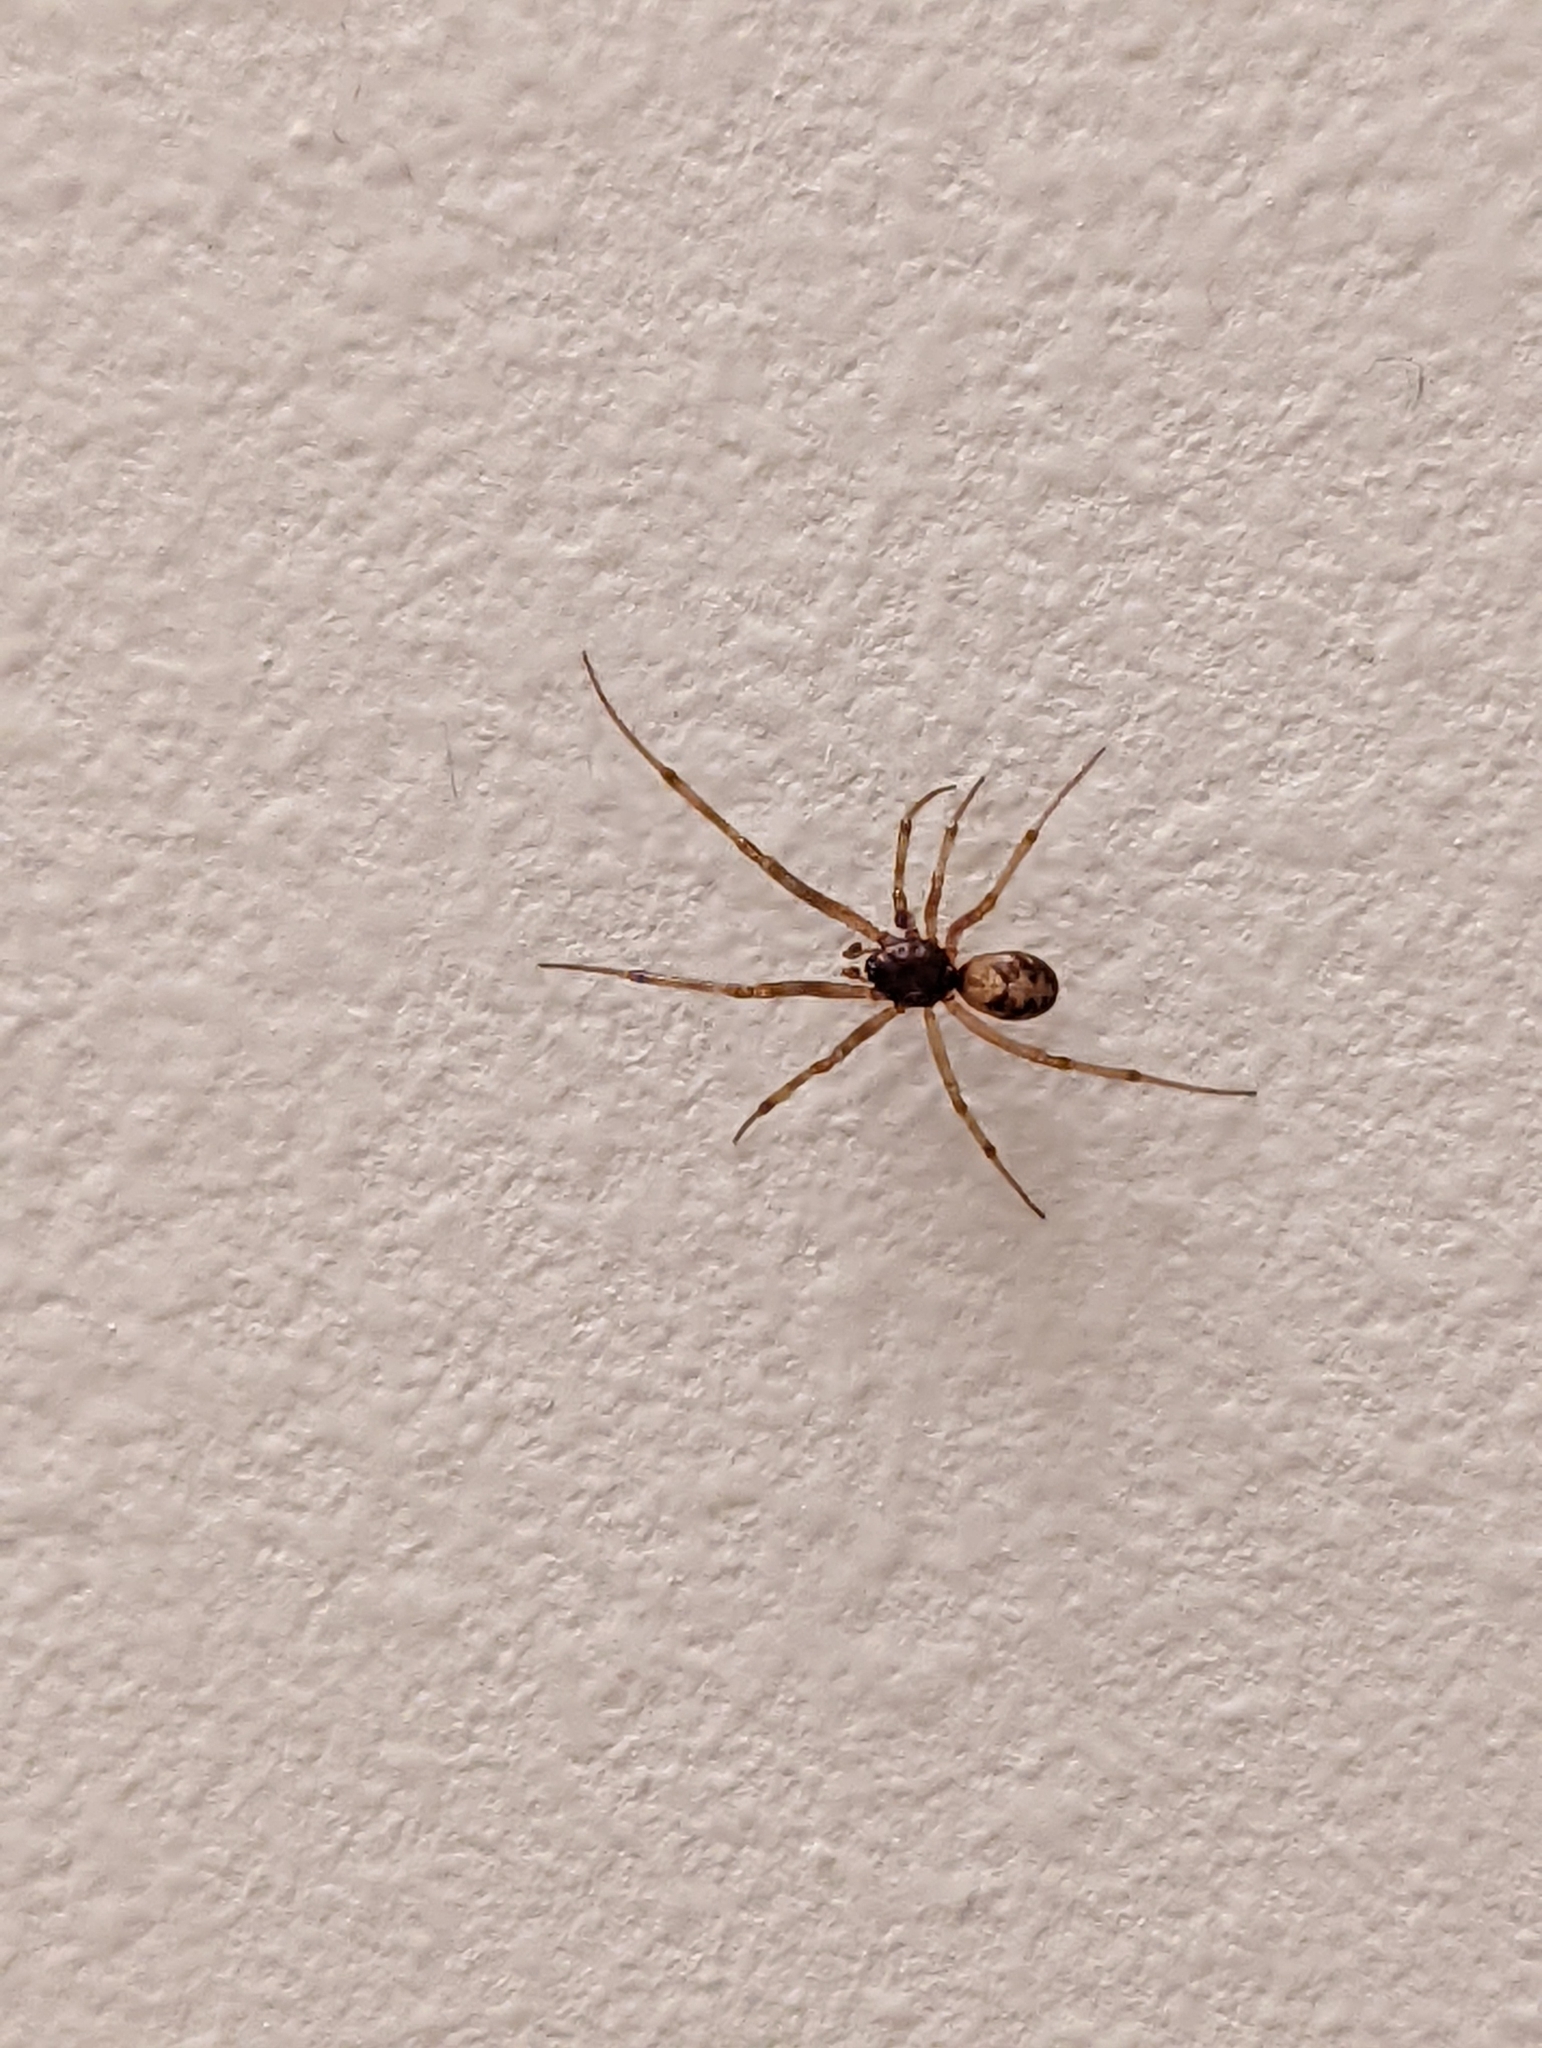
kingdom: Animalia
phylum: Arthropoda
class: Arachnida
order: Araneae
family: Theridiidae
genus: Steatoda
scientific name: Steatoda triangulosa
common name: Triangulate bud spider
